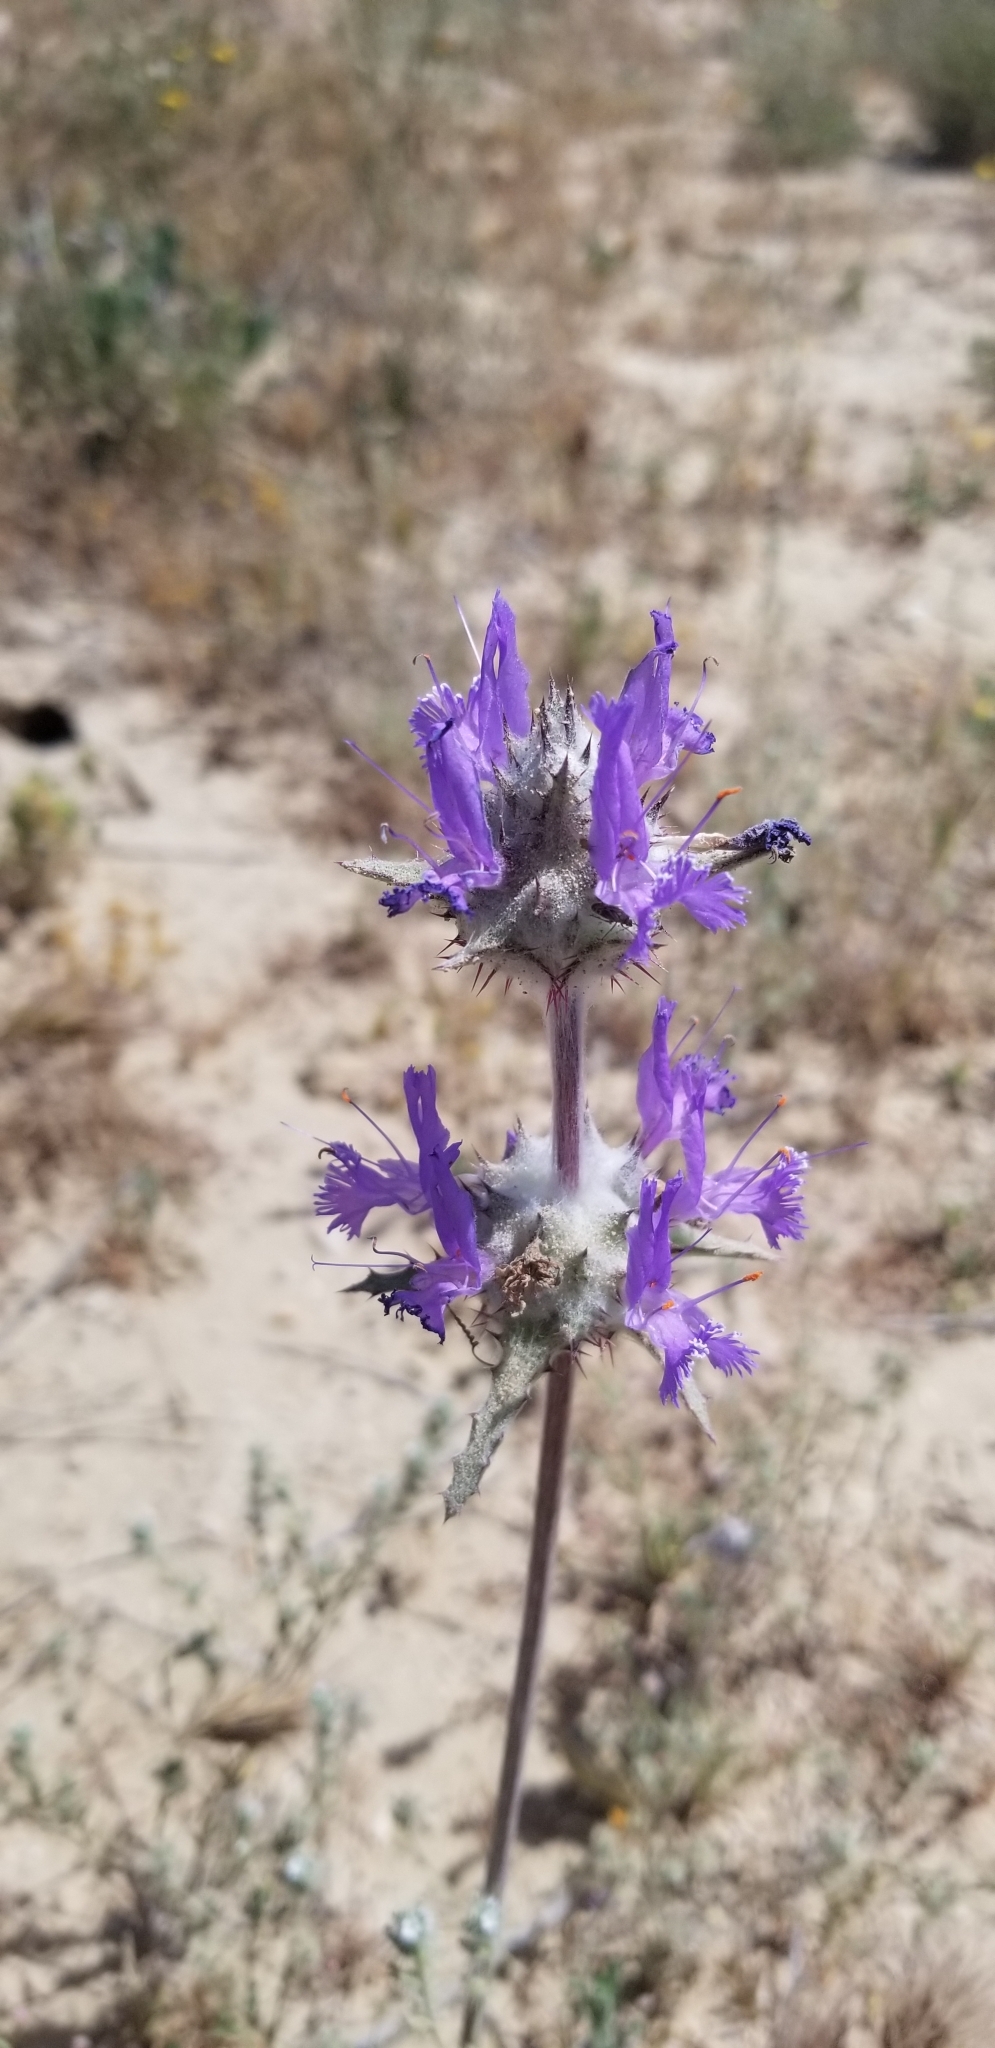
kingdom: Plantae
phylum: Tracheophyta
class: Magnoliopsida
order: Lamiales
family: Lamiaceae
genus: Salvia
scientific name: Salvia carduacea
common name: Thistle sage
